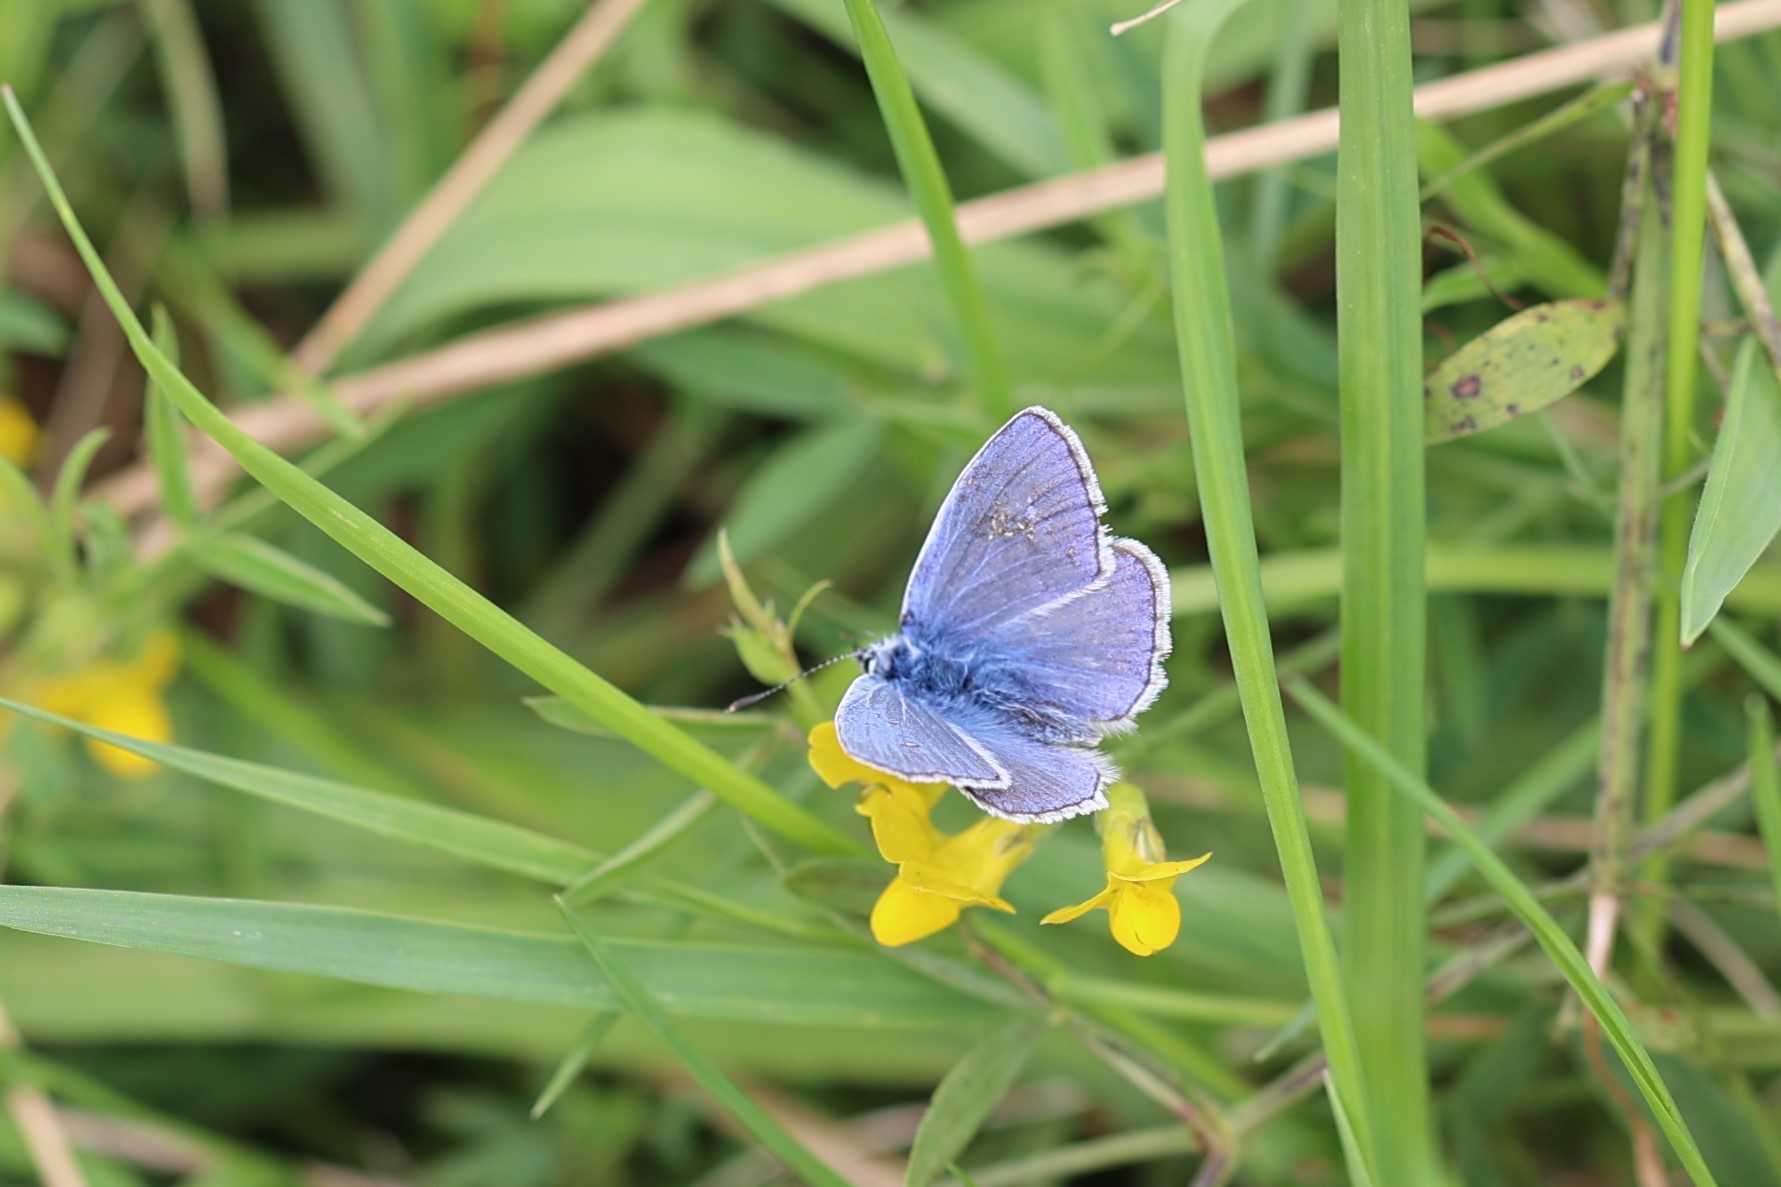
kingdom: Animalia
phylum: Arthropoda
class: Insecta
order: Lepidoptera
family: Lycaenidae
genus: Polyommatus
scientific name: Polyommatus icarus
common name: Common blue
